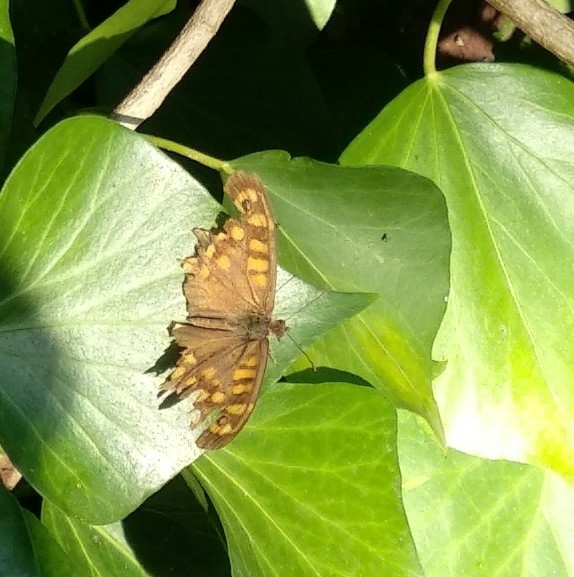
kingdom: Animalia
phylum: Arthropoda
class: Insecta
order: Lepidoptera
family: Nymphalidae
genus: Pararge
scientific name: Pararge aegeria
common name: Speckled wood
